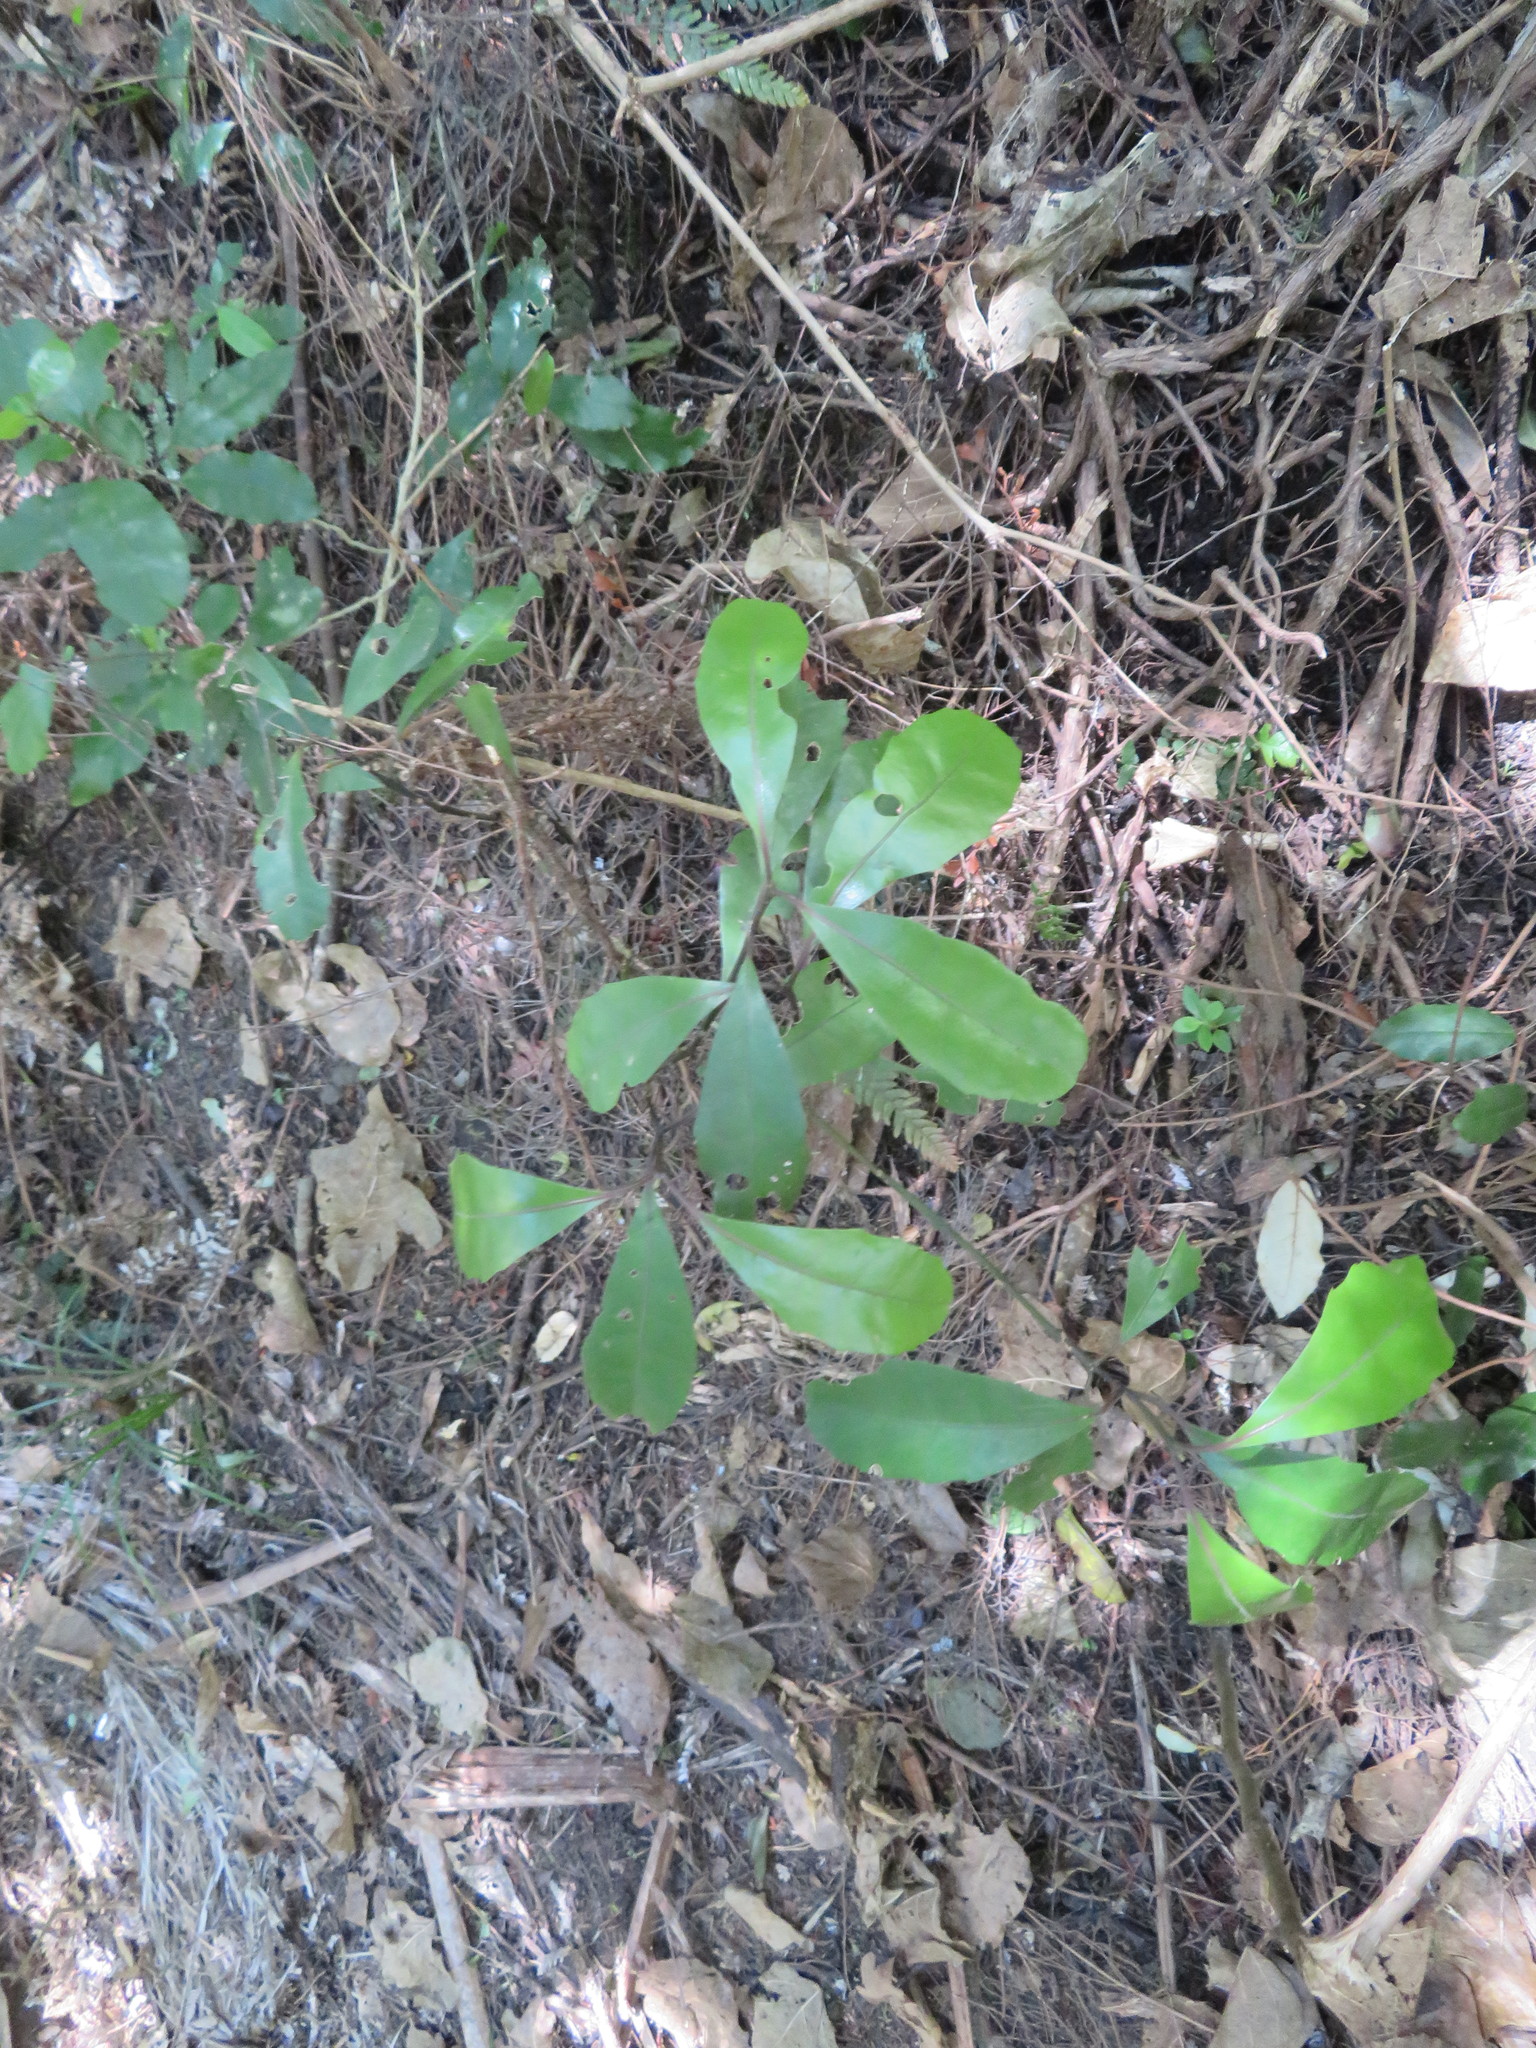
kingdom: Plantae
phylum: Tracheophyta
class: Magnoliopsida
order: Laurales
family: Monimiaceae
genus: Hedycarya
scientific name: Hedycarya arborea
